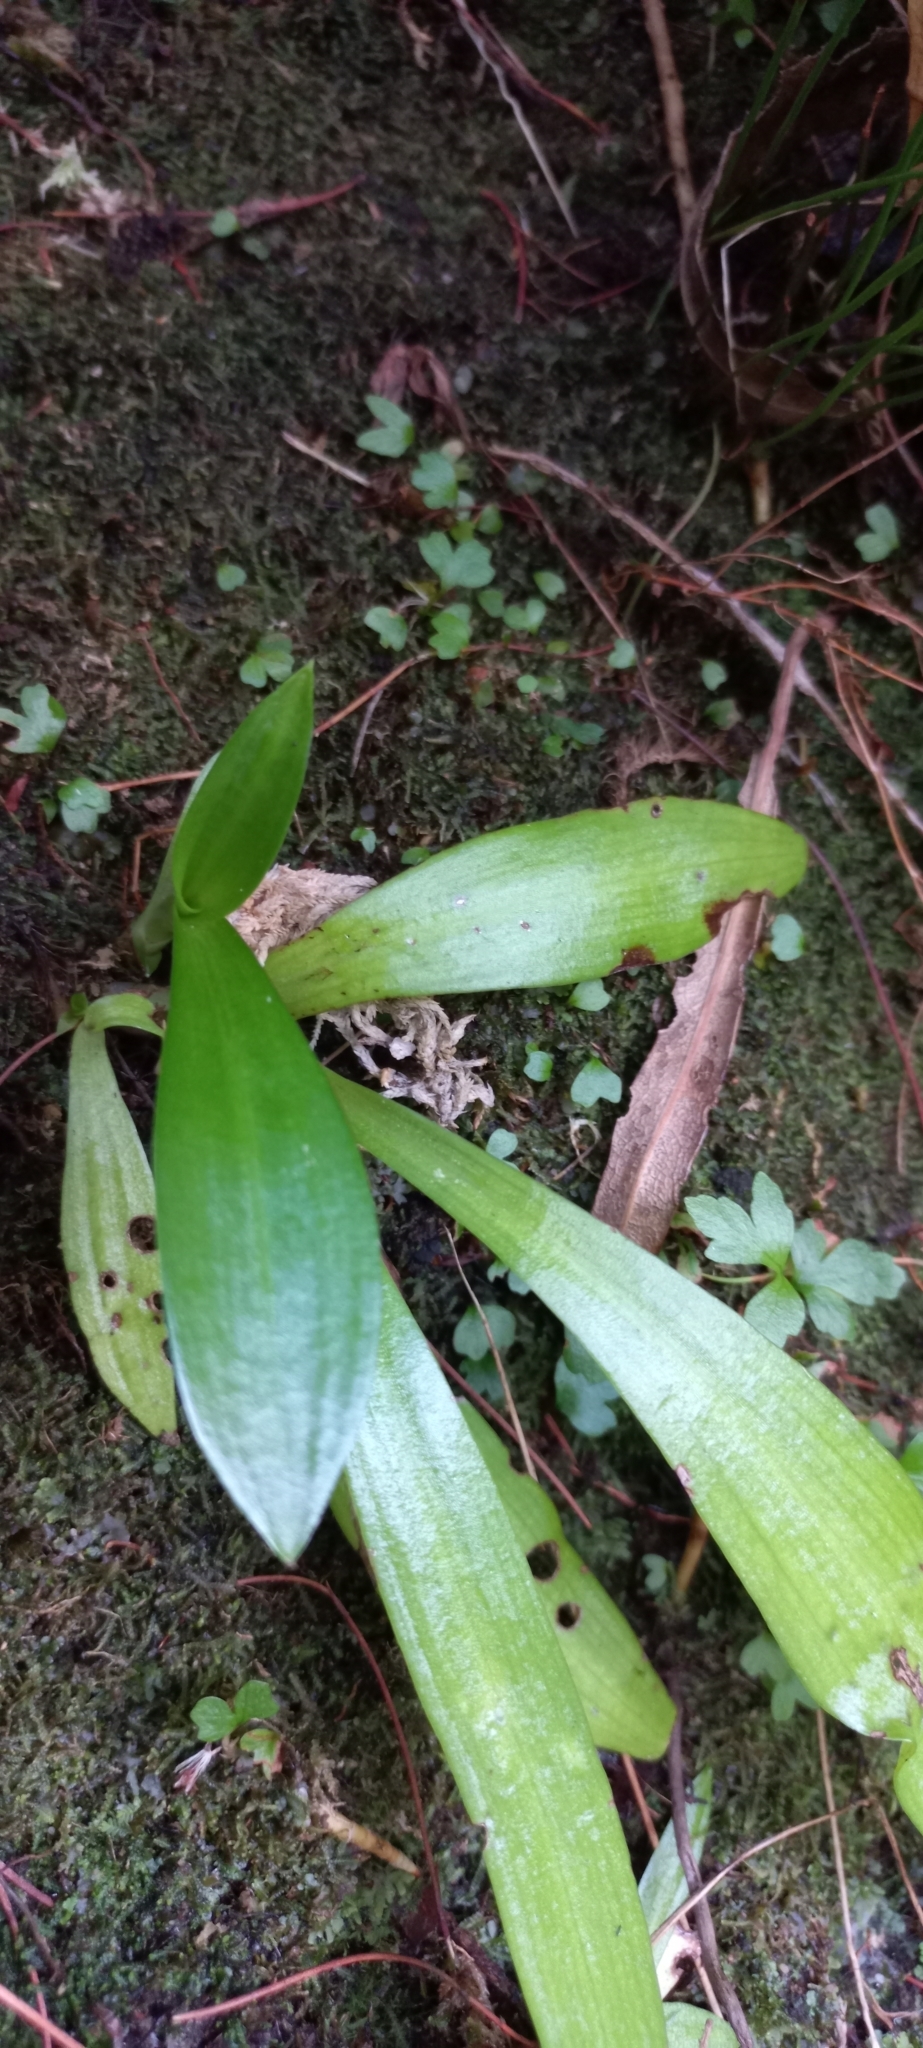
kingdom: Plantae
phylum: Tracheophyta
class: Liliopsida
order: Asparagales
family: Orchidaceae
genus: Disa
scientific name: Disa uniflora
